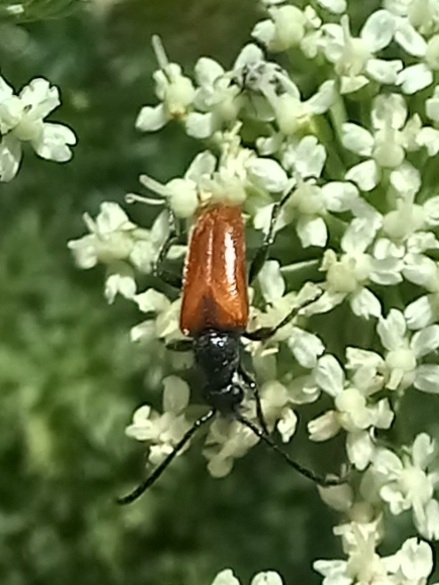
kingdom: Animalia
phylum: Arthropoda
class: Insecta
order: Coleoptera
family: Cerambycidae
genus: Pseudovadonia
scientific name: Pseudovadonia livida
